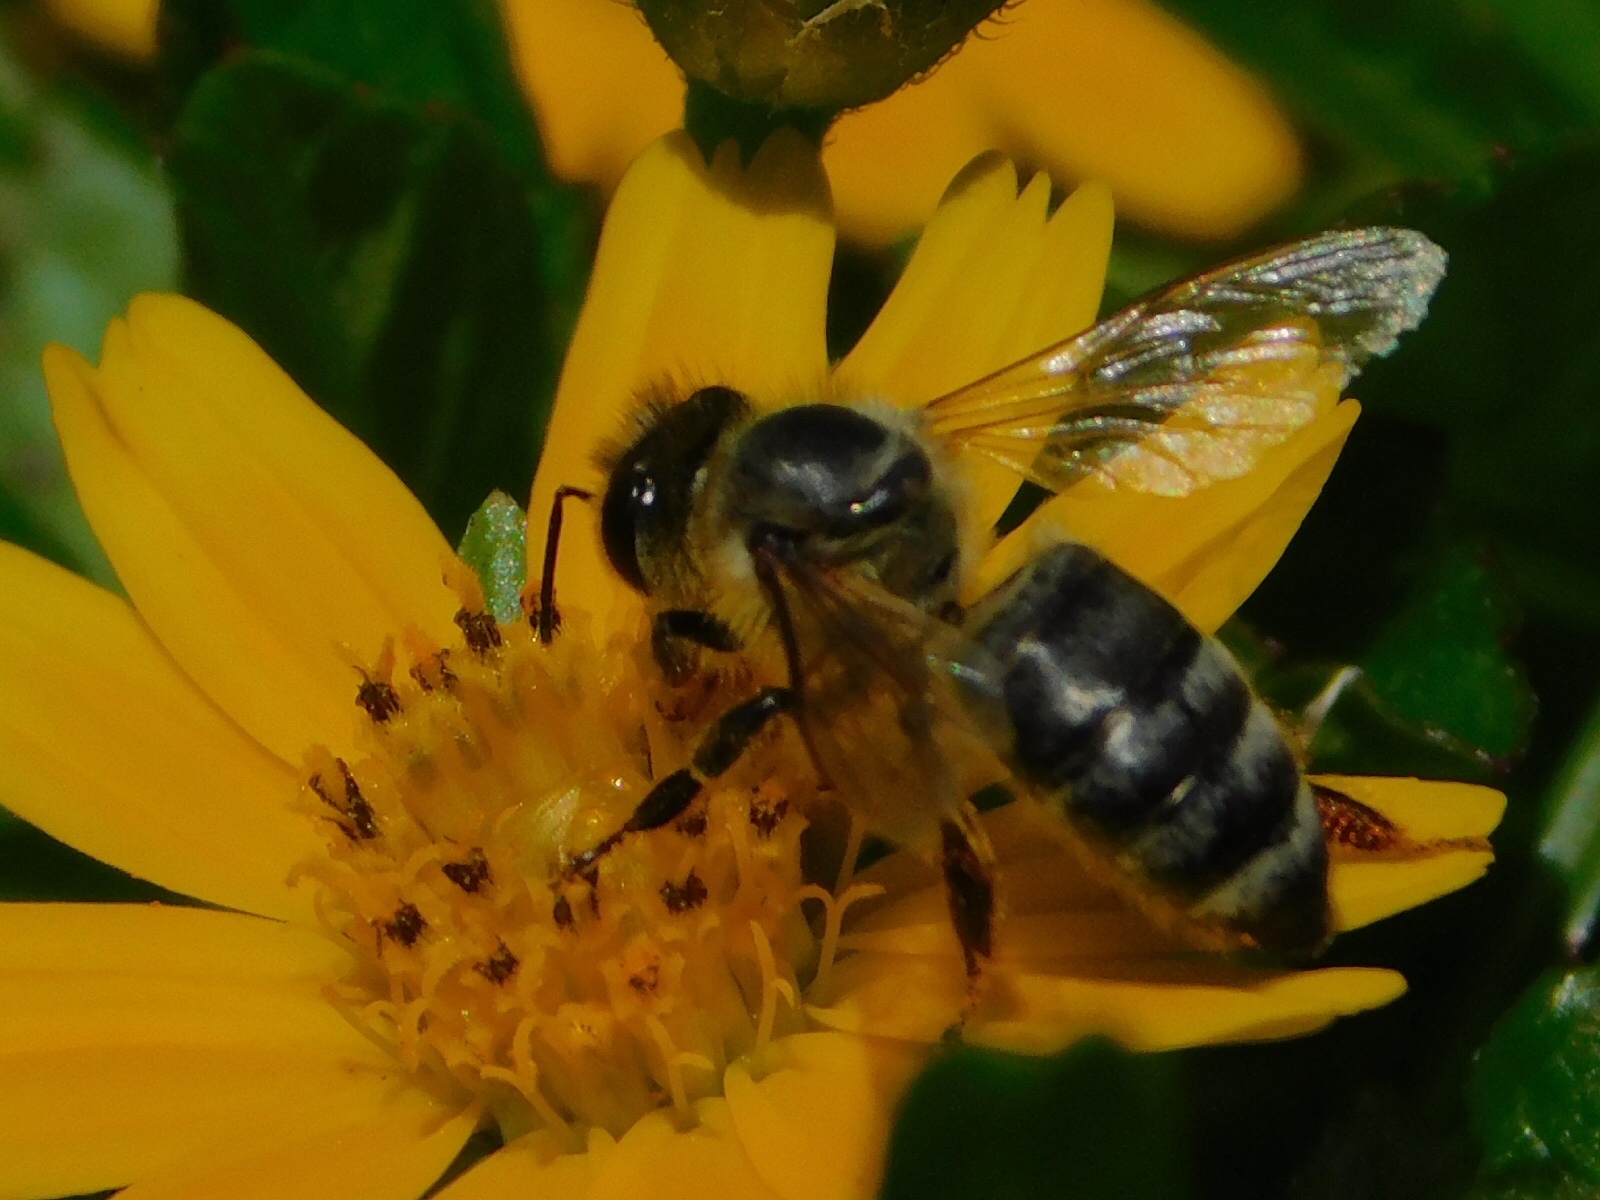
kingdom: Animalia
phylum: Arthropoda
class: Insecta
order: Hymenoptera
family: Apidae
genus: Apis
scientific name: Apis mellifera
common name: Honey bee
